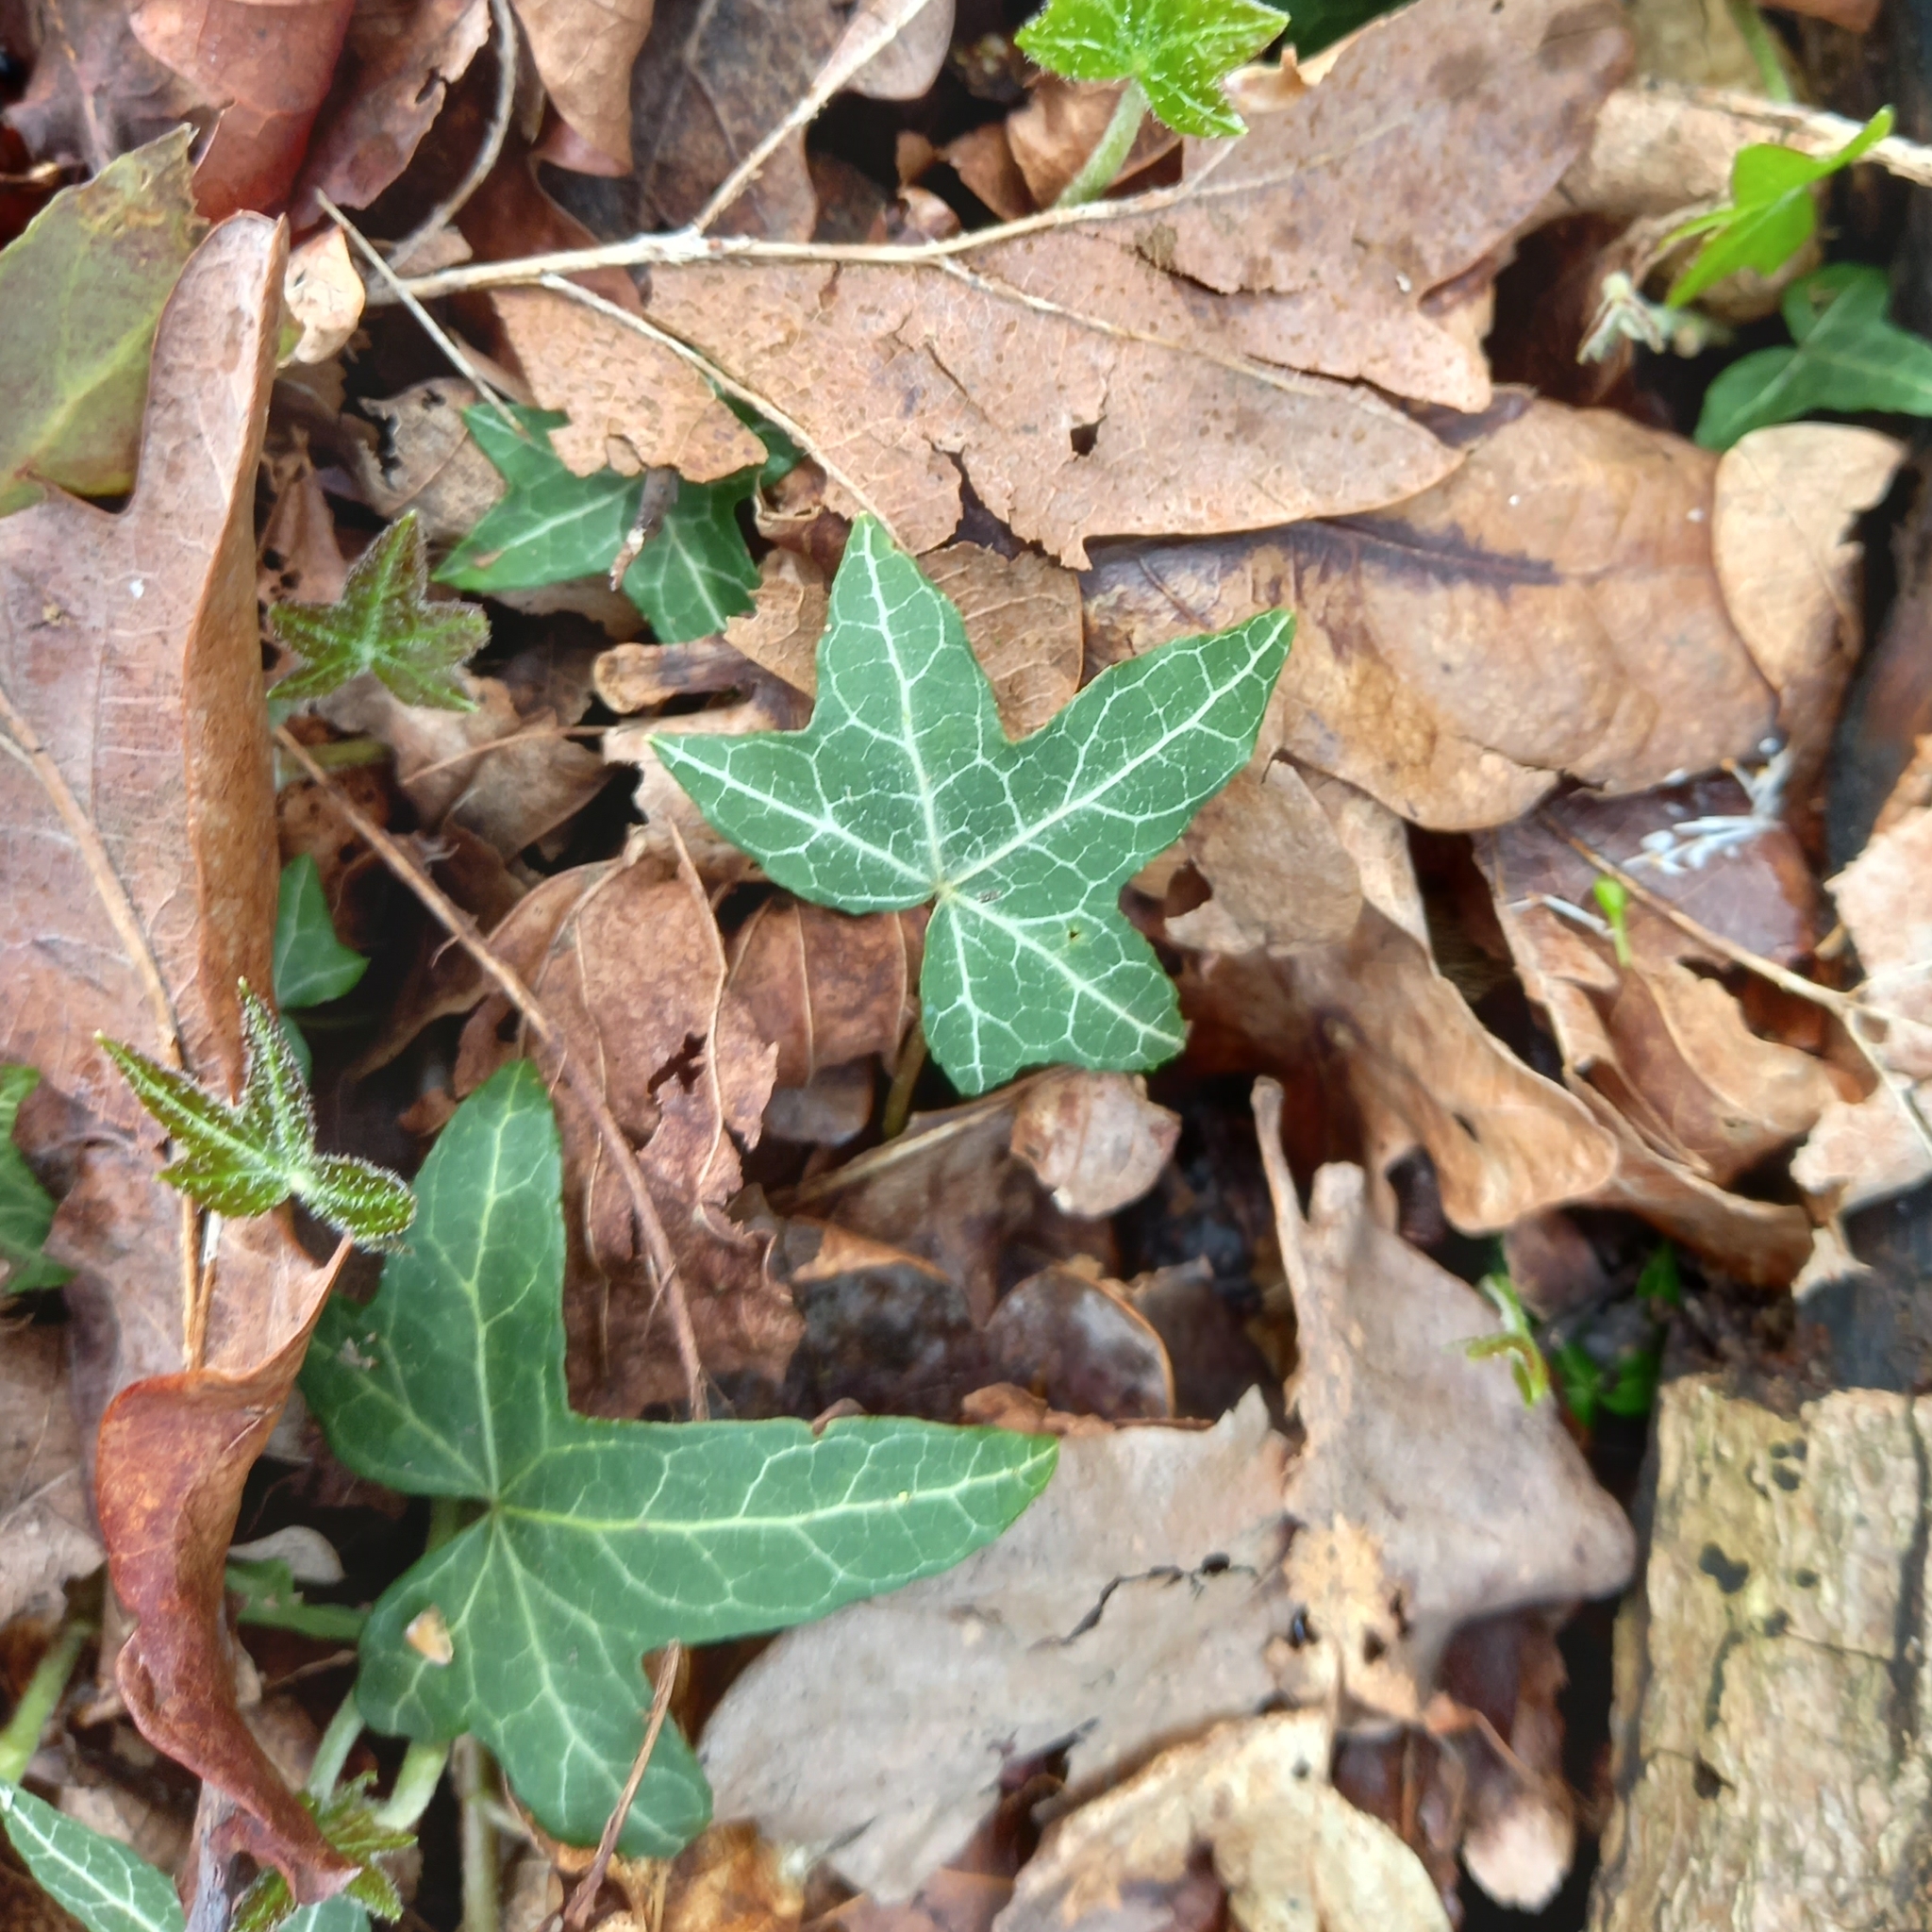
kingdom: Plantae
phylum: Tracheophyta
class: Magnoliopsida
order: Apiales
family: Araliaceae
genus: Hedera
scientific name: Hedera helix
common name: Ivy
